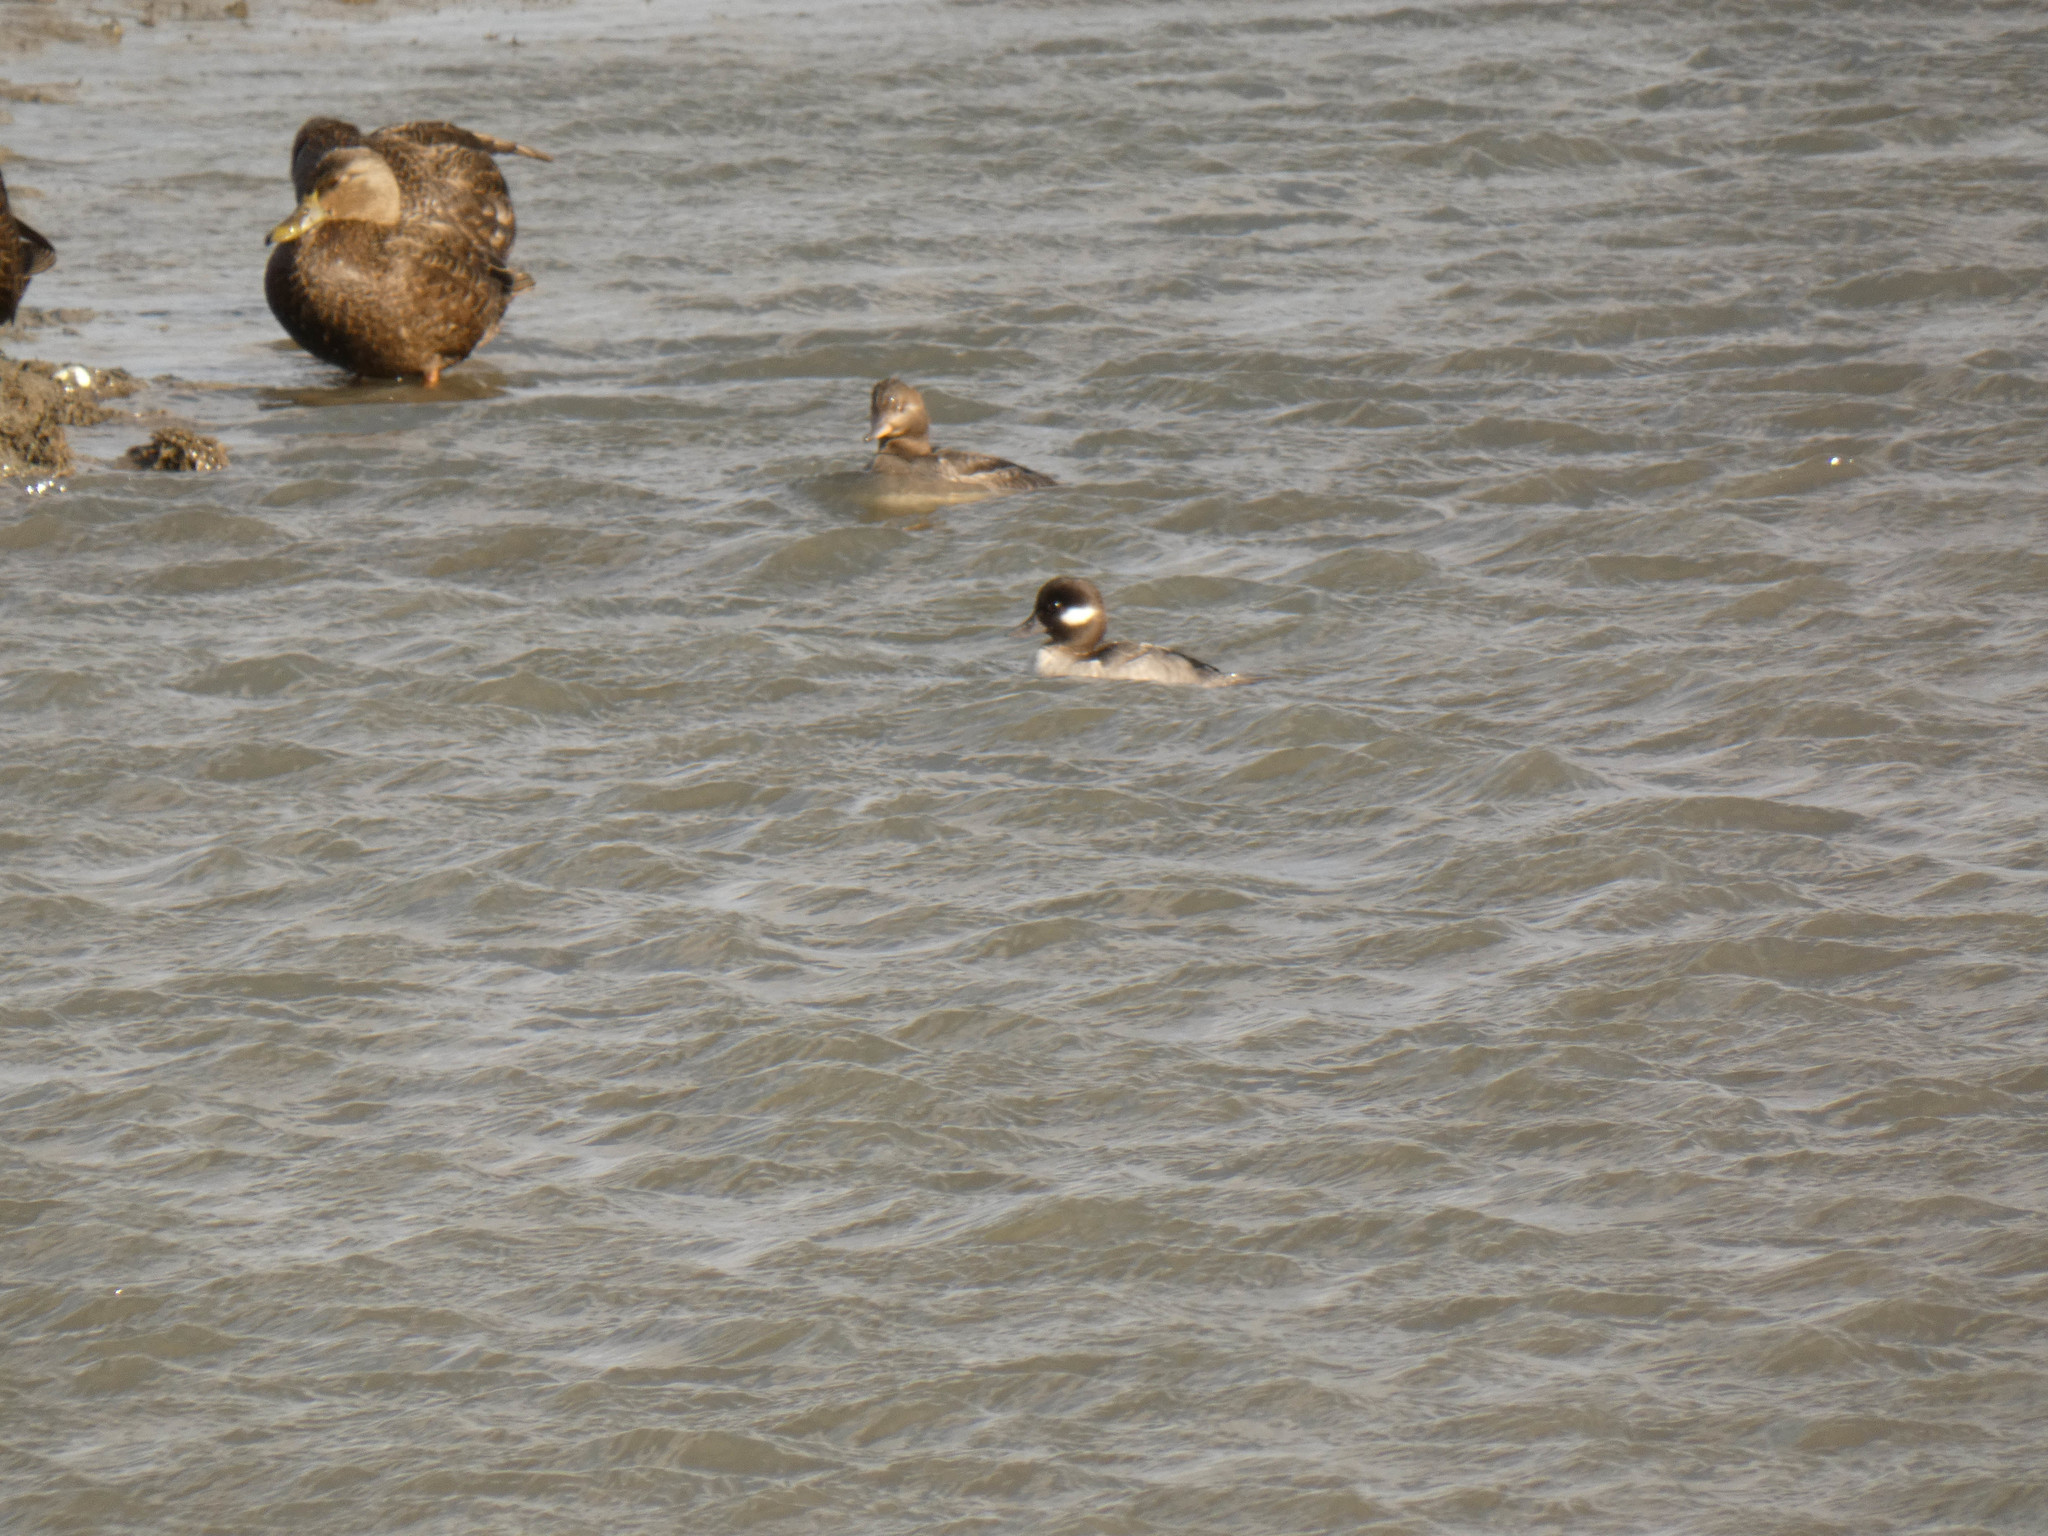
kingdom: Animalia
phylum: Chordata
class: Aves
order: Anseriformes
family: Anatidae
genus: Bucephala
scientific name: Bucephala albeola
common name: Bufflehead
